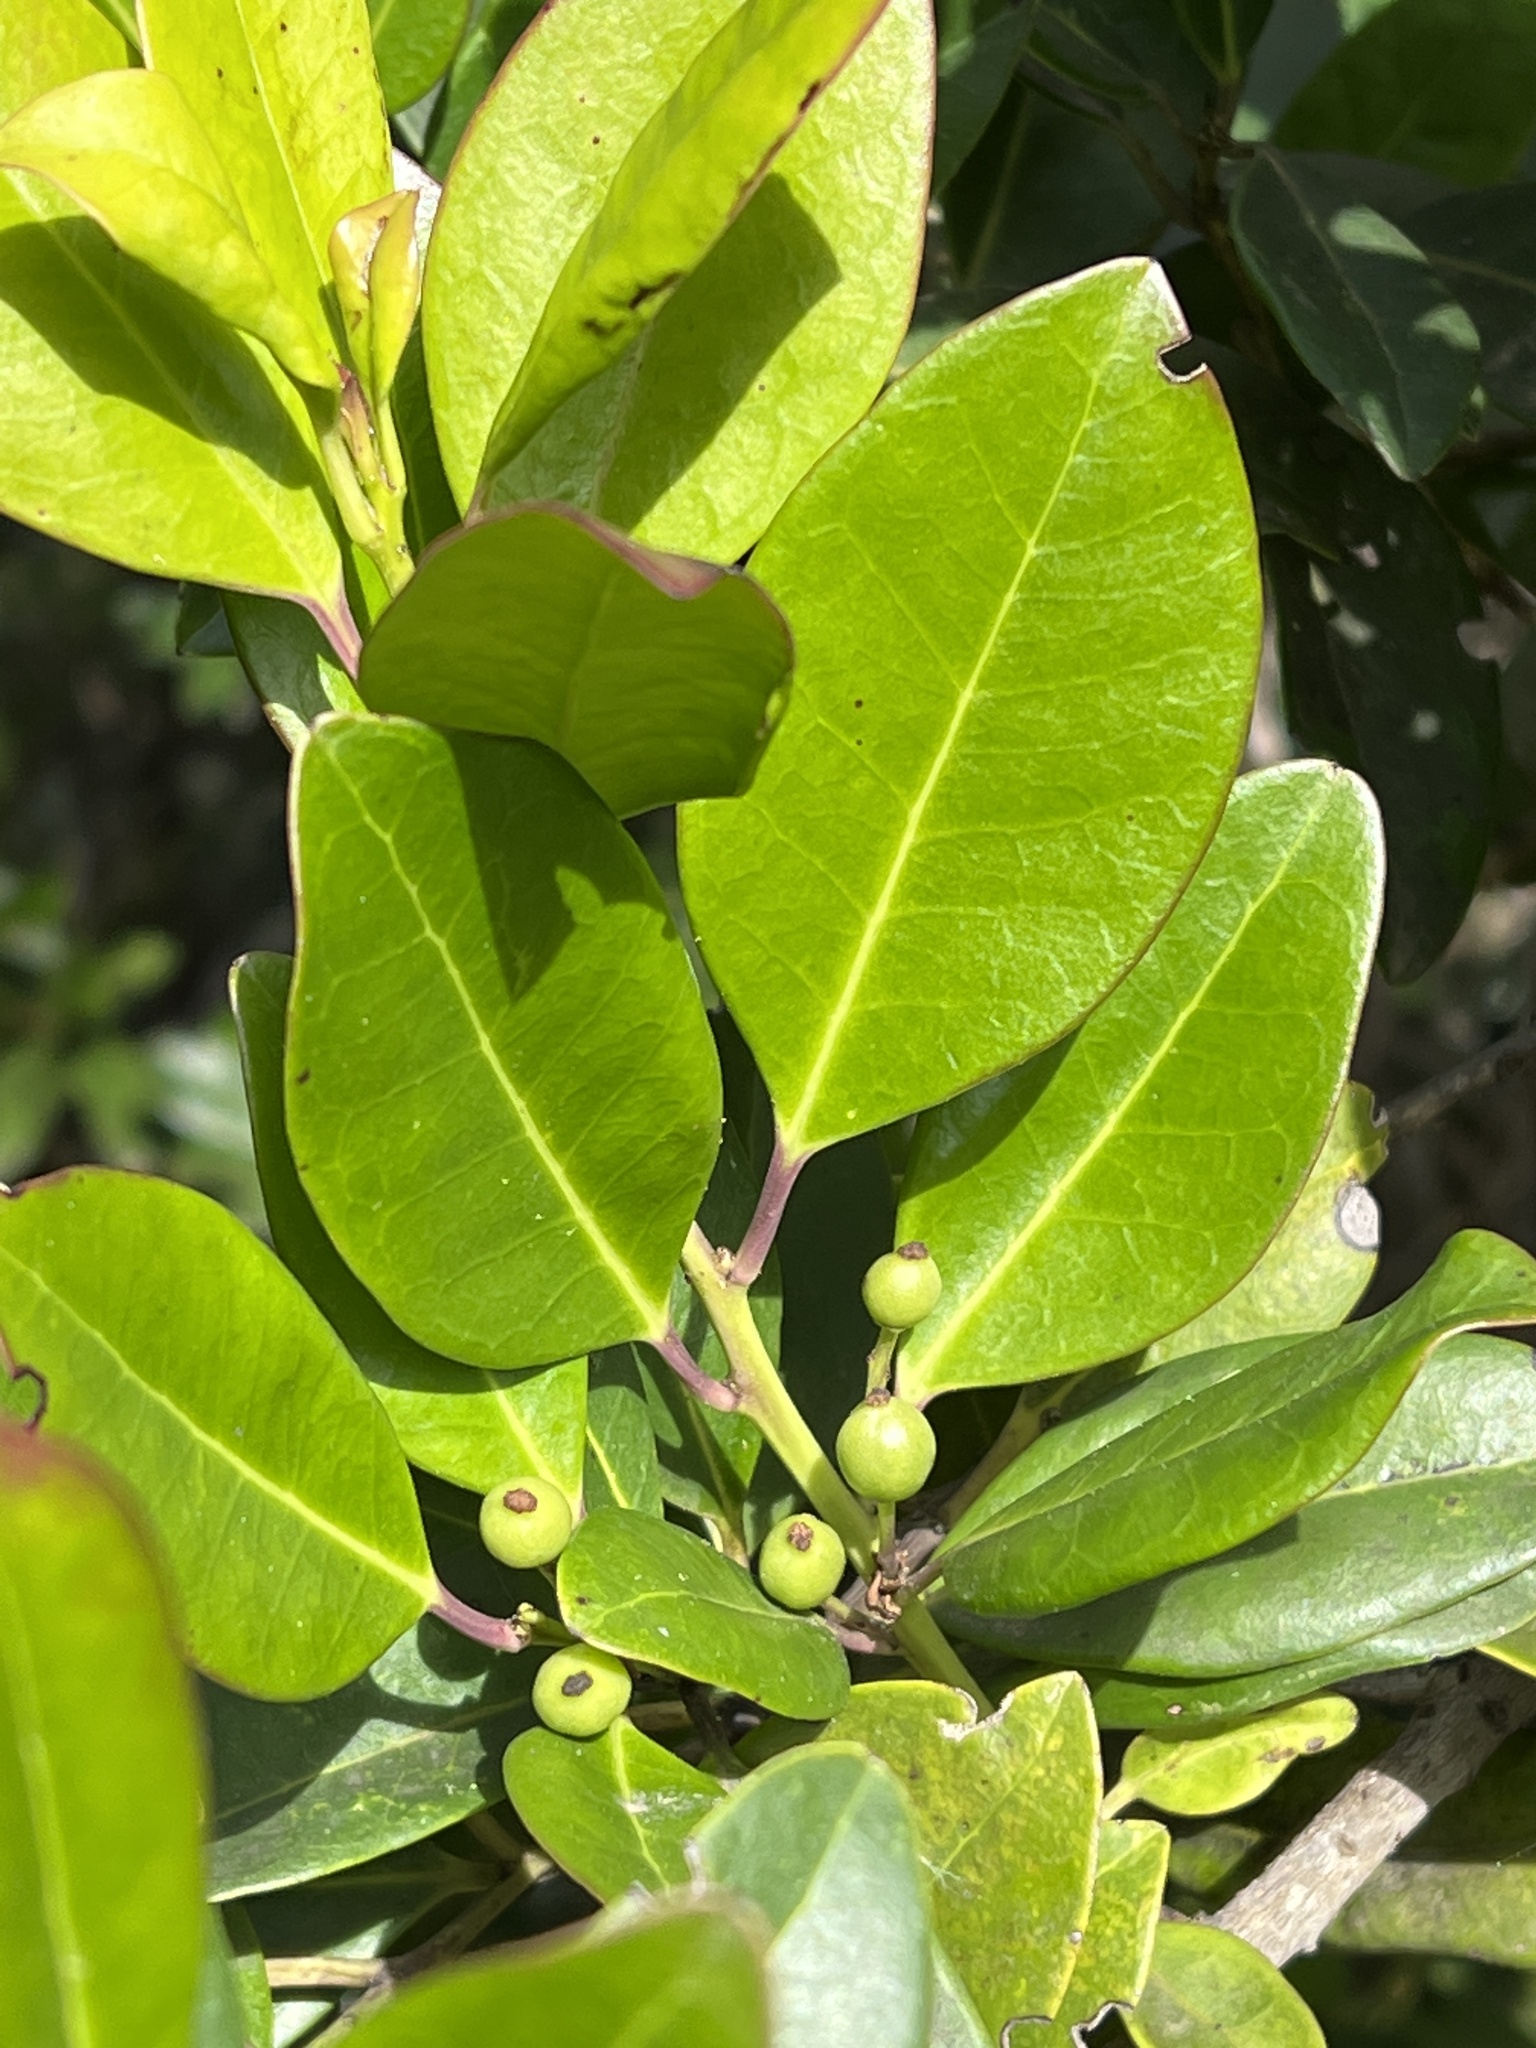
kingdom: Plantae
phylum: Tracheophyta
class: Magnoliopsida
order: Aquifoliales
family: Aquifoliaceae
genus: Ilex
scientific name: Ilex canariensis
